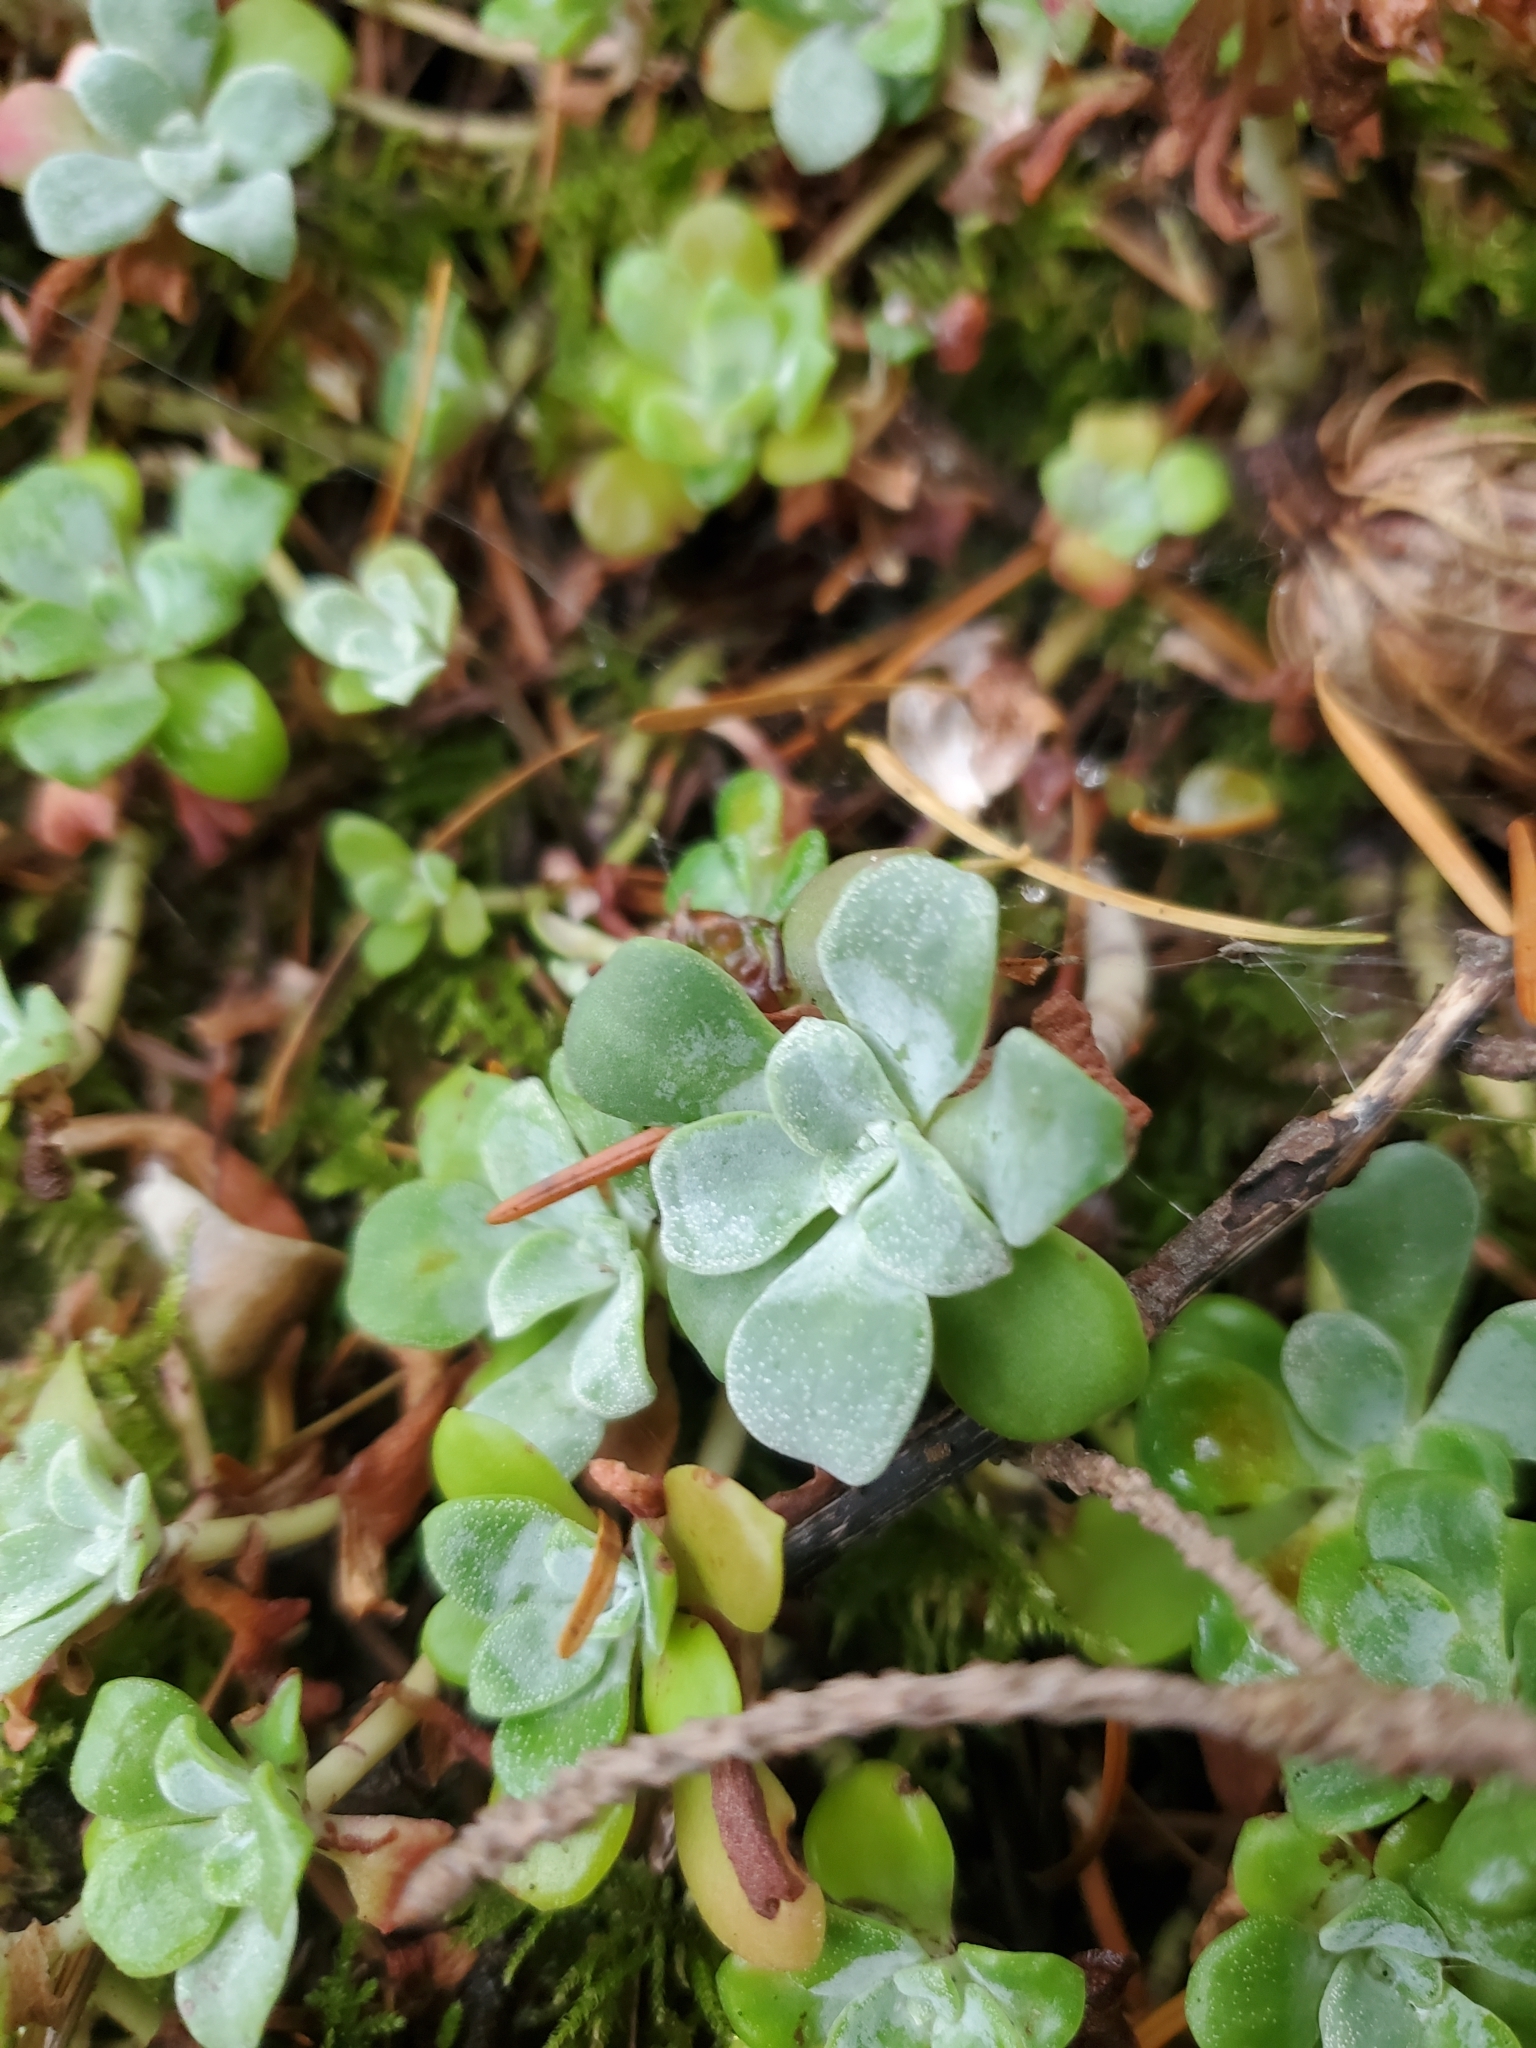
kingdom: Plantae
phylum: Tracheophyta
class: Magnoliopsida
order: Saxifragales
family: Crassulaceae
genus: Sedum
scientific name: Sedum spathulifolium
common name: Colorado stonecrop
